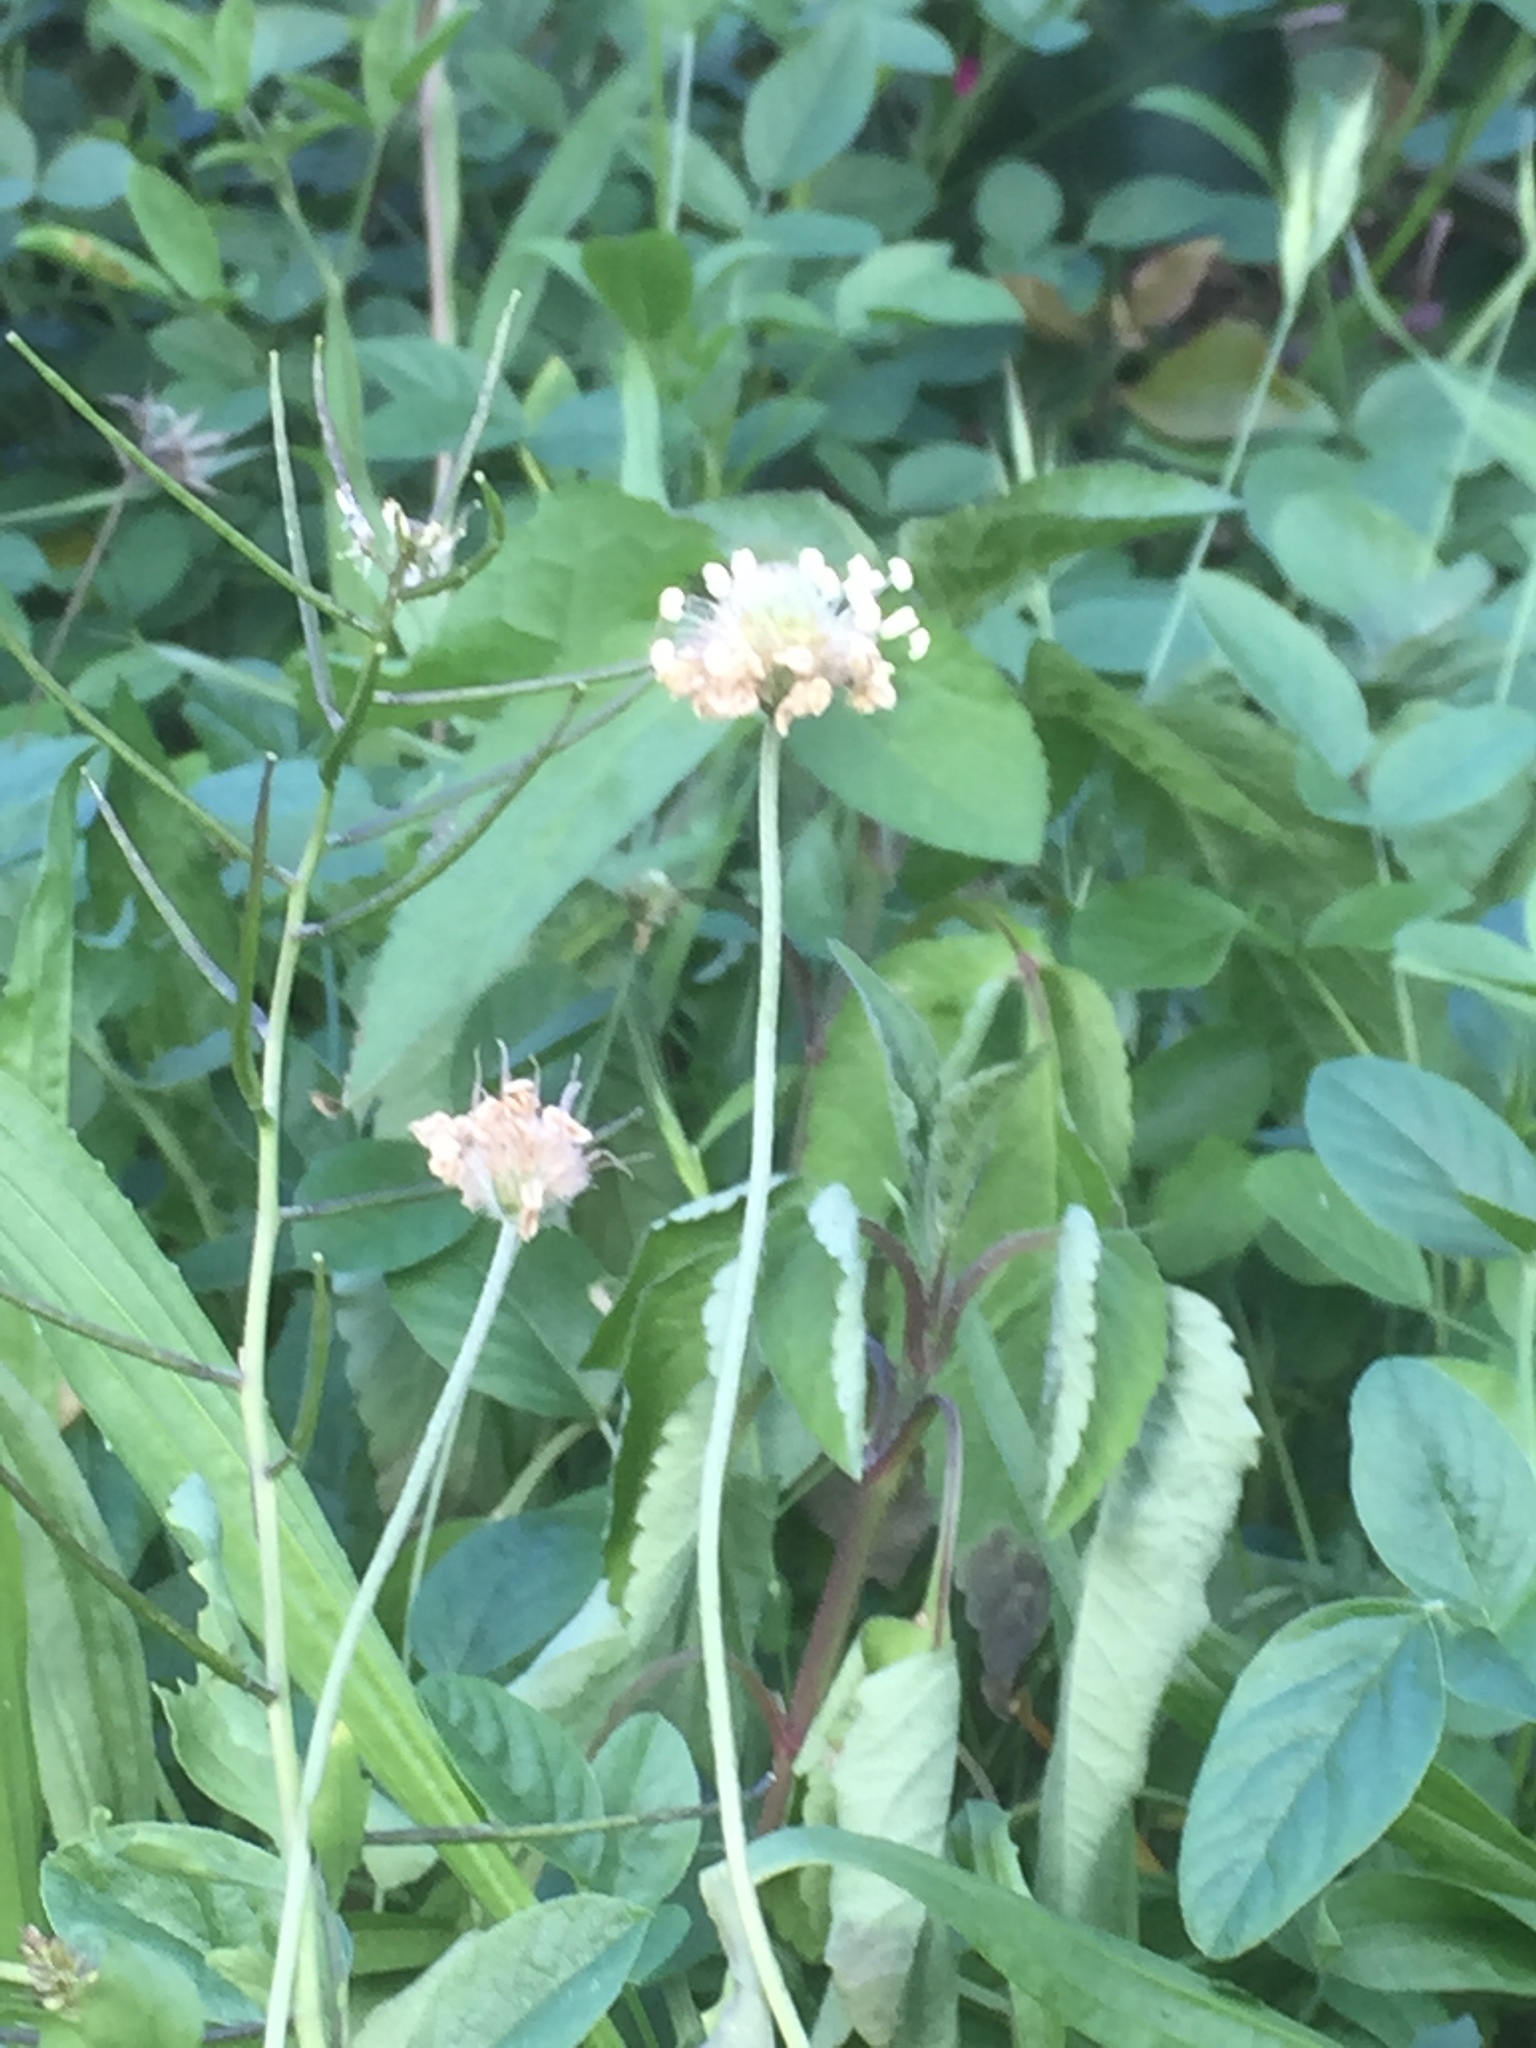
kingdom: Plantae
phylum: Tracheophyta
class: Magnoliopsida
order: Lamiales
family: Plantaginaceae
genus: Plantago
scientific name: Plantago lanceolata
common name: Ribwort plantain
